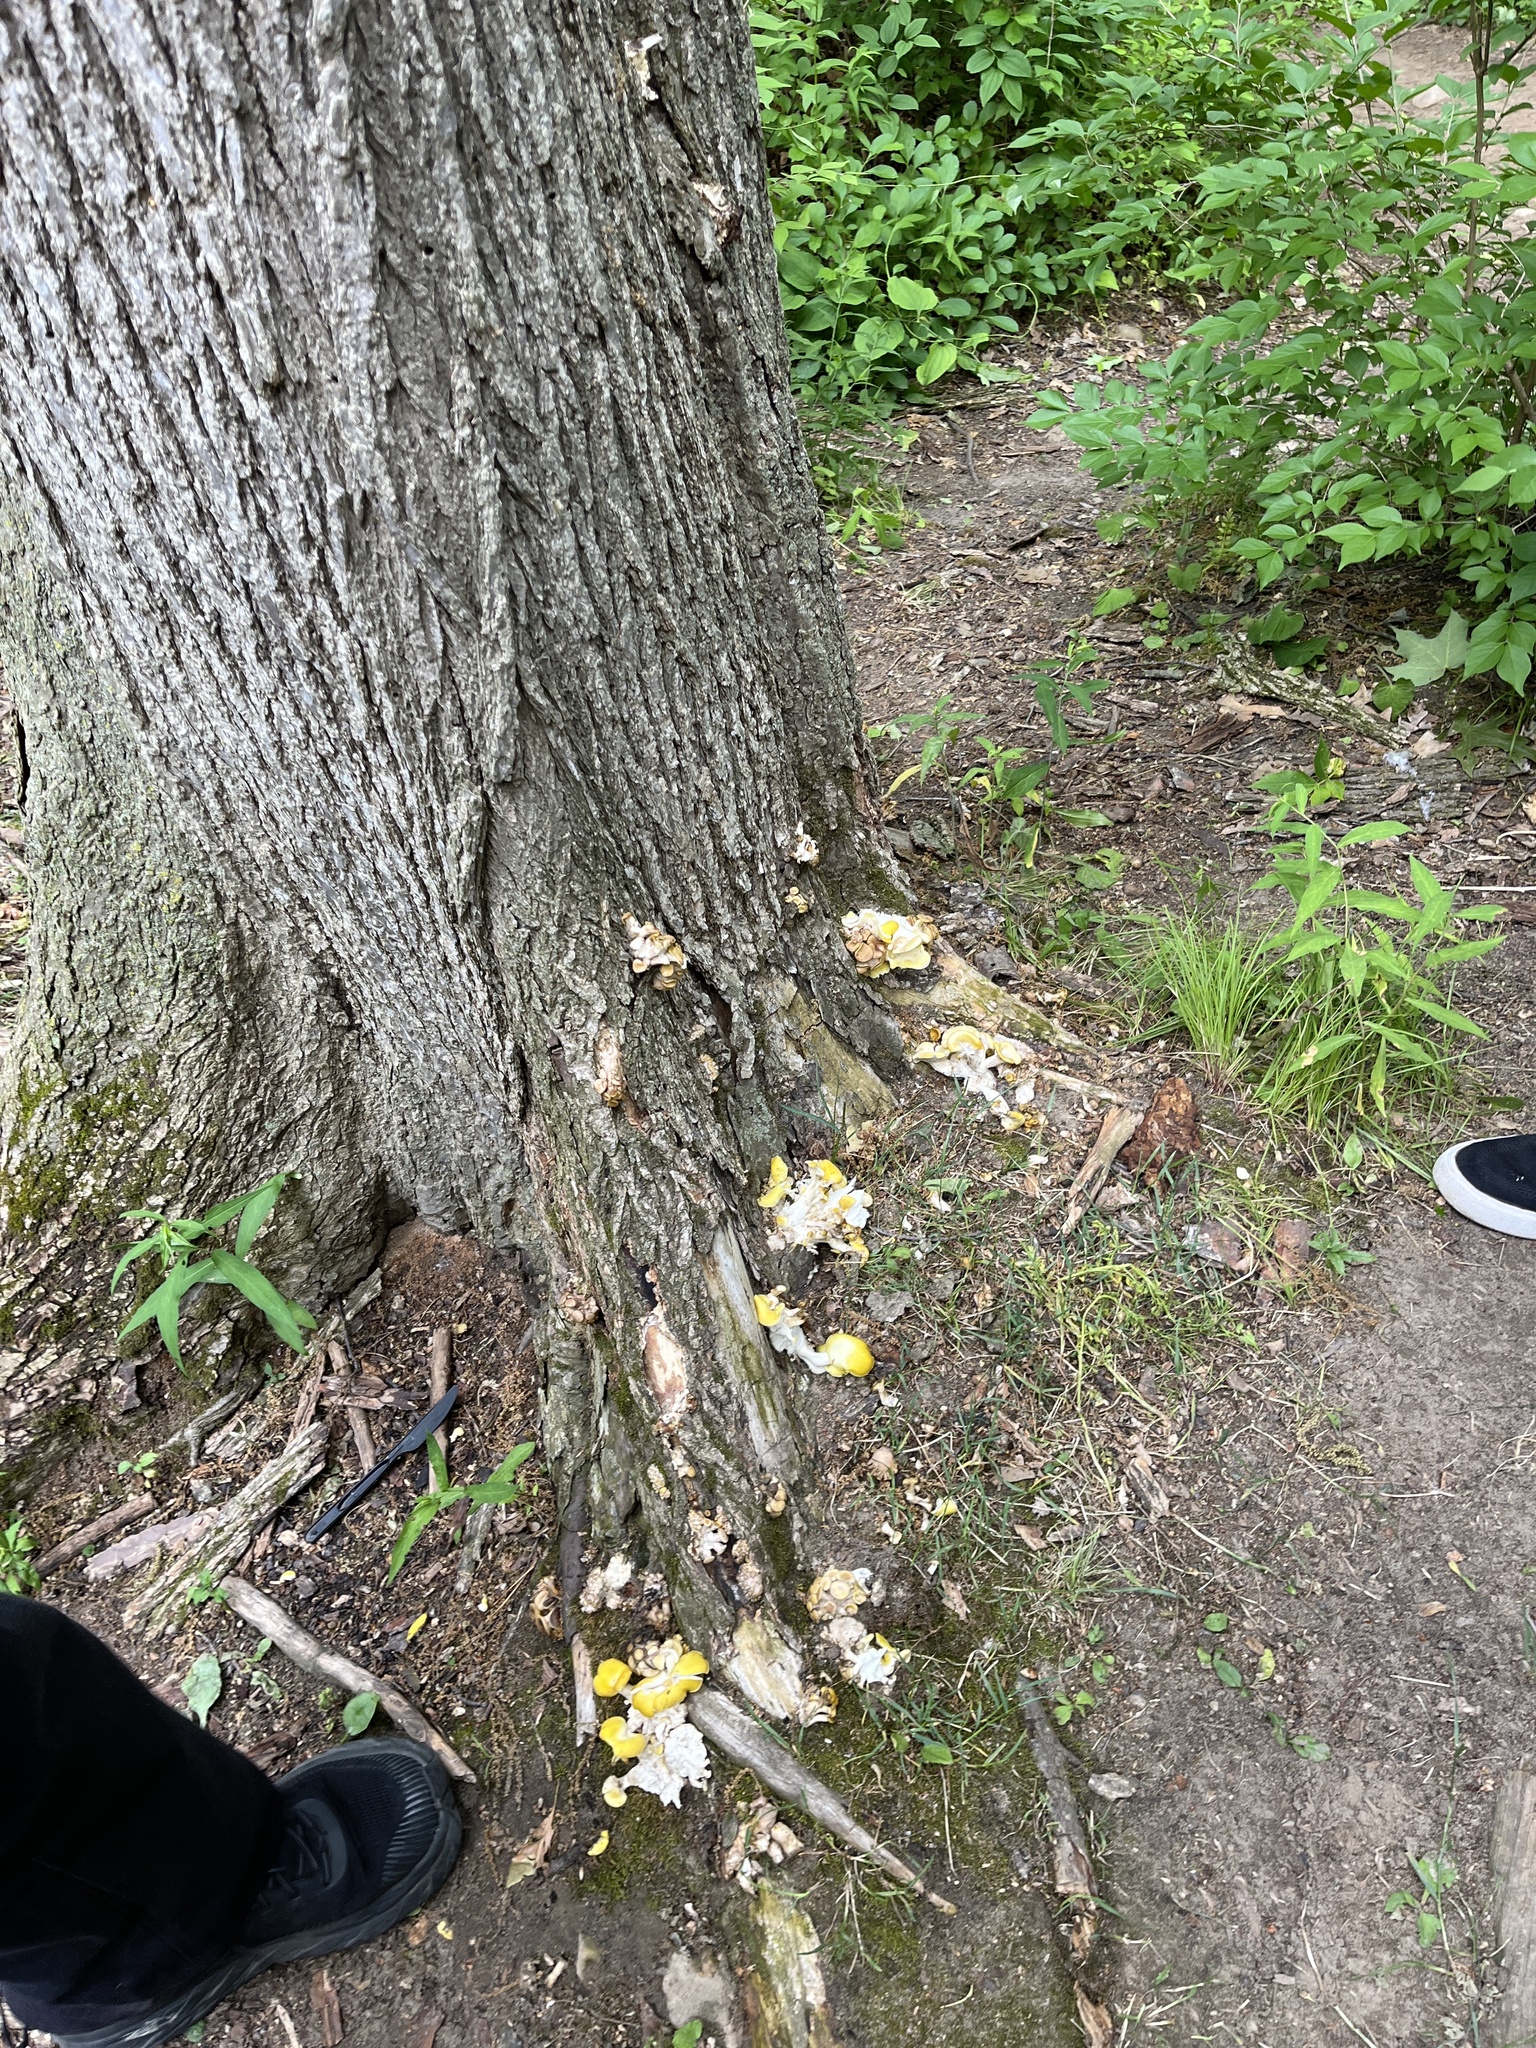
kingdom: Fungi
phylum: Basidiomycota
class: Agaricomycetes
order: Agaricales
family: Pleurotaceae
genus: Pleurotus
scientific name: Pleurotus citrinopileatus
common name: Golden oyster mushroom
